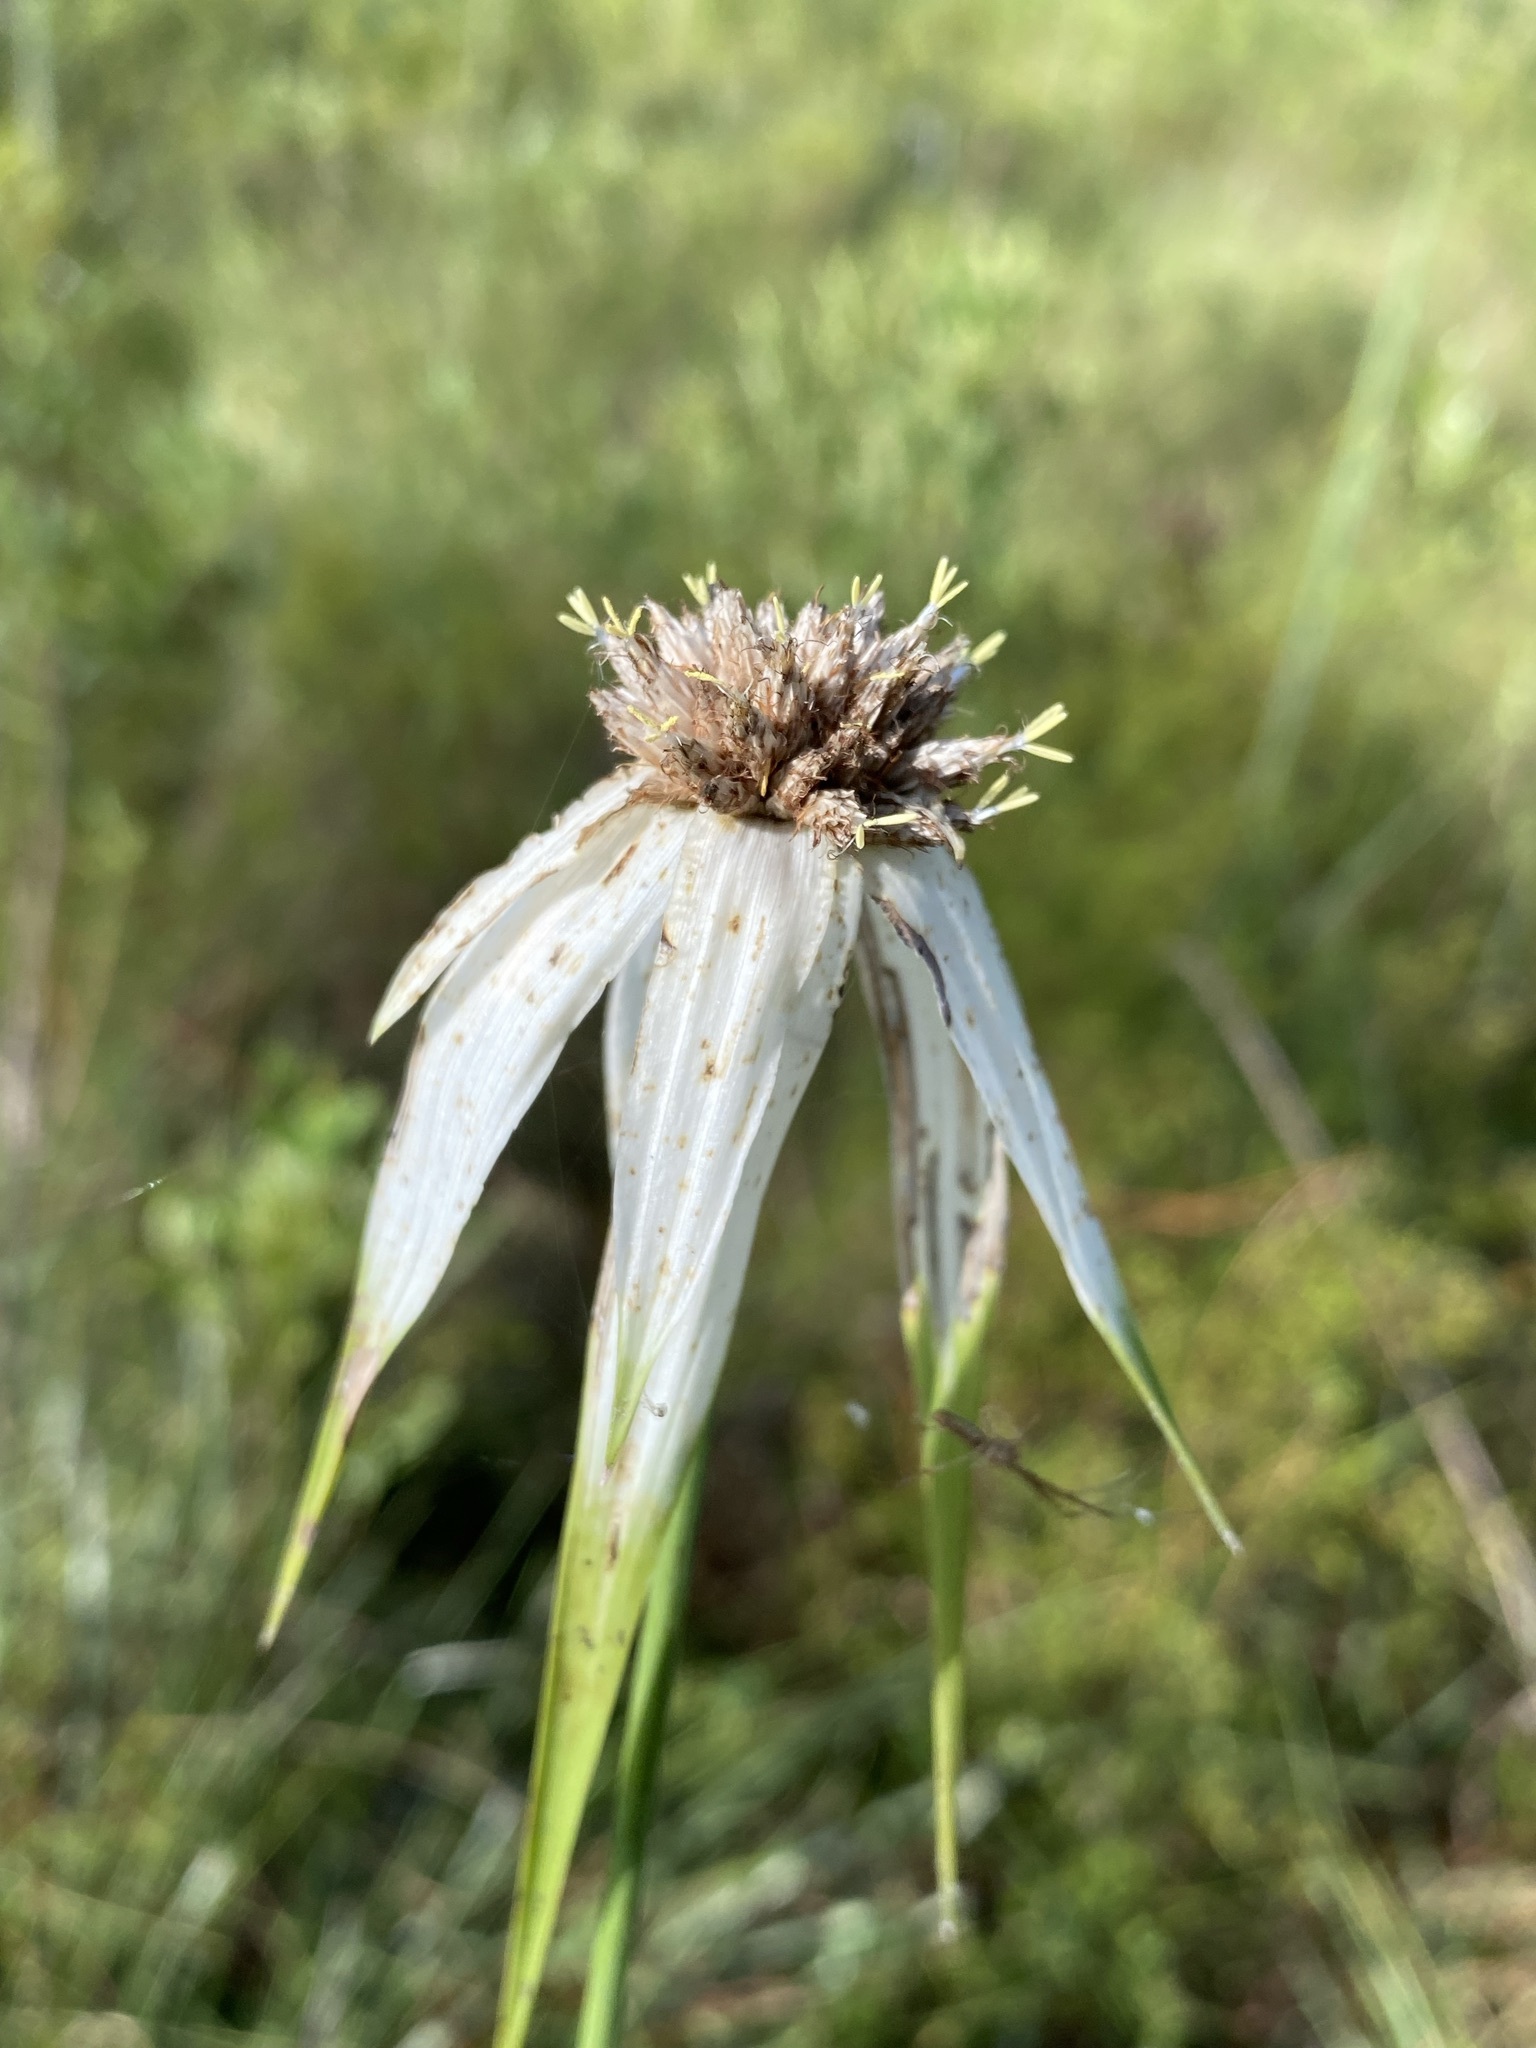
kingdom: Plantae
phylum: Tracheophyta
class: Liliopsida
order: Poales
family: Cyperaceae
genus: Rhynchospora
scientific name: Rhynchospora latifolia
